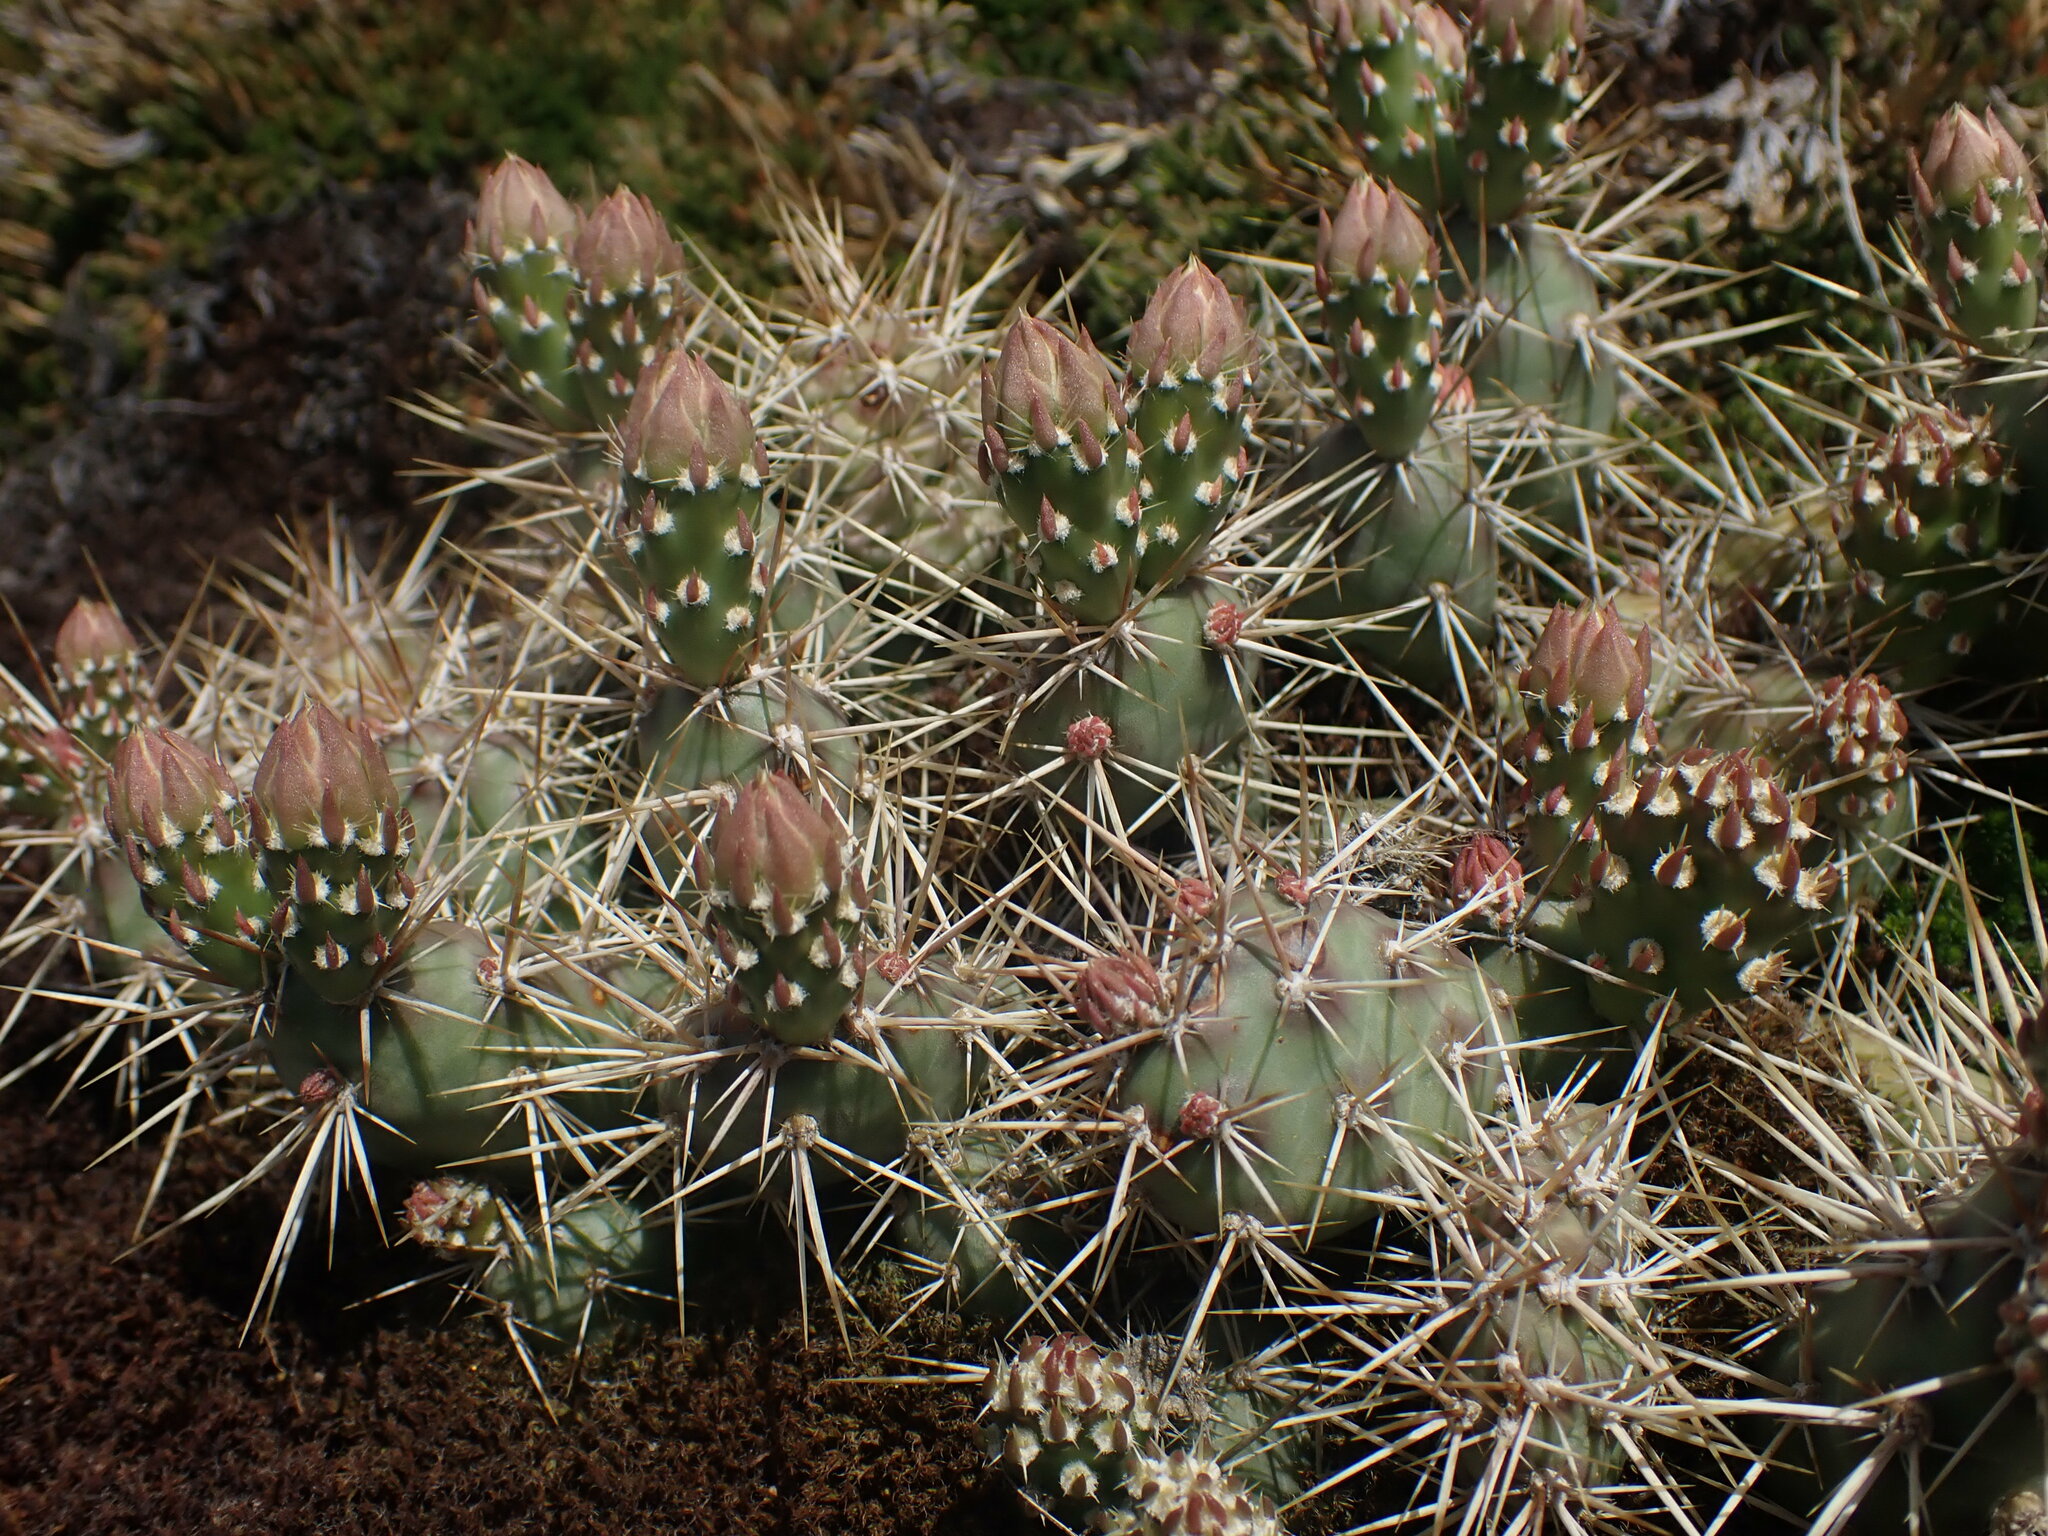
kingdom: Plantae
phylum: Tracheophyta
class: Magnoliopsida
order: Caryophyllales
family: Cactaceae
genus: Opuntia
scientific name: Opuntia fragilis
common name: Brittle cactus
